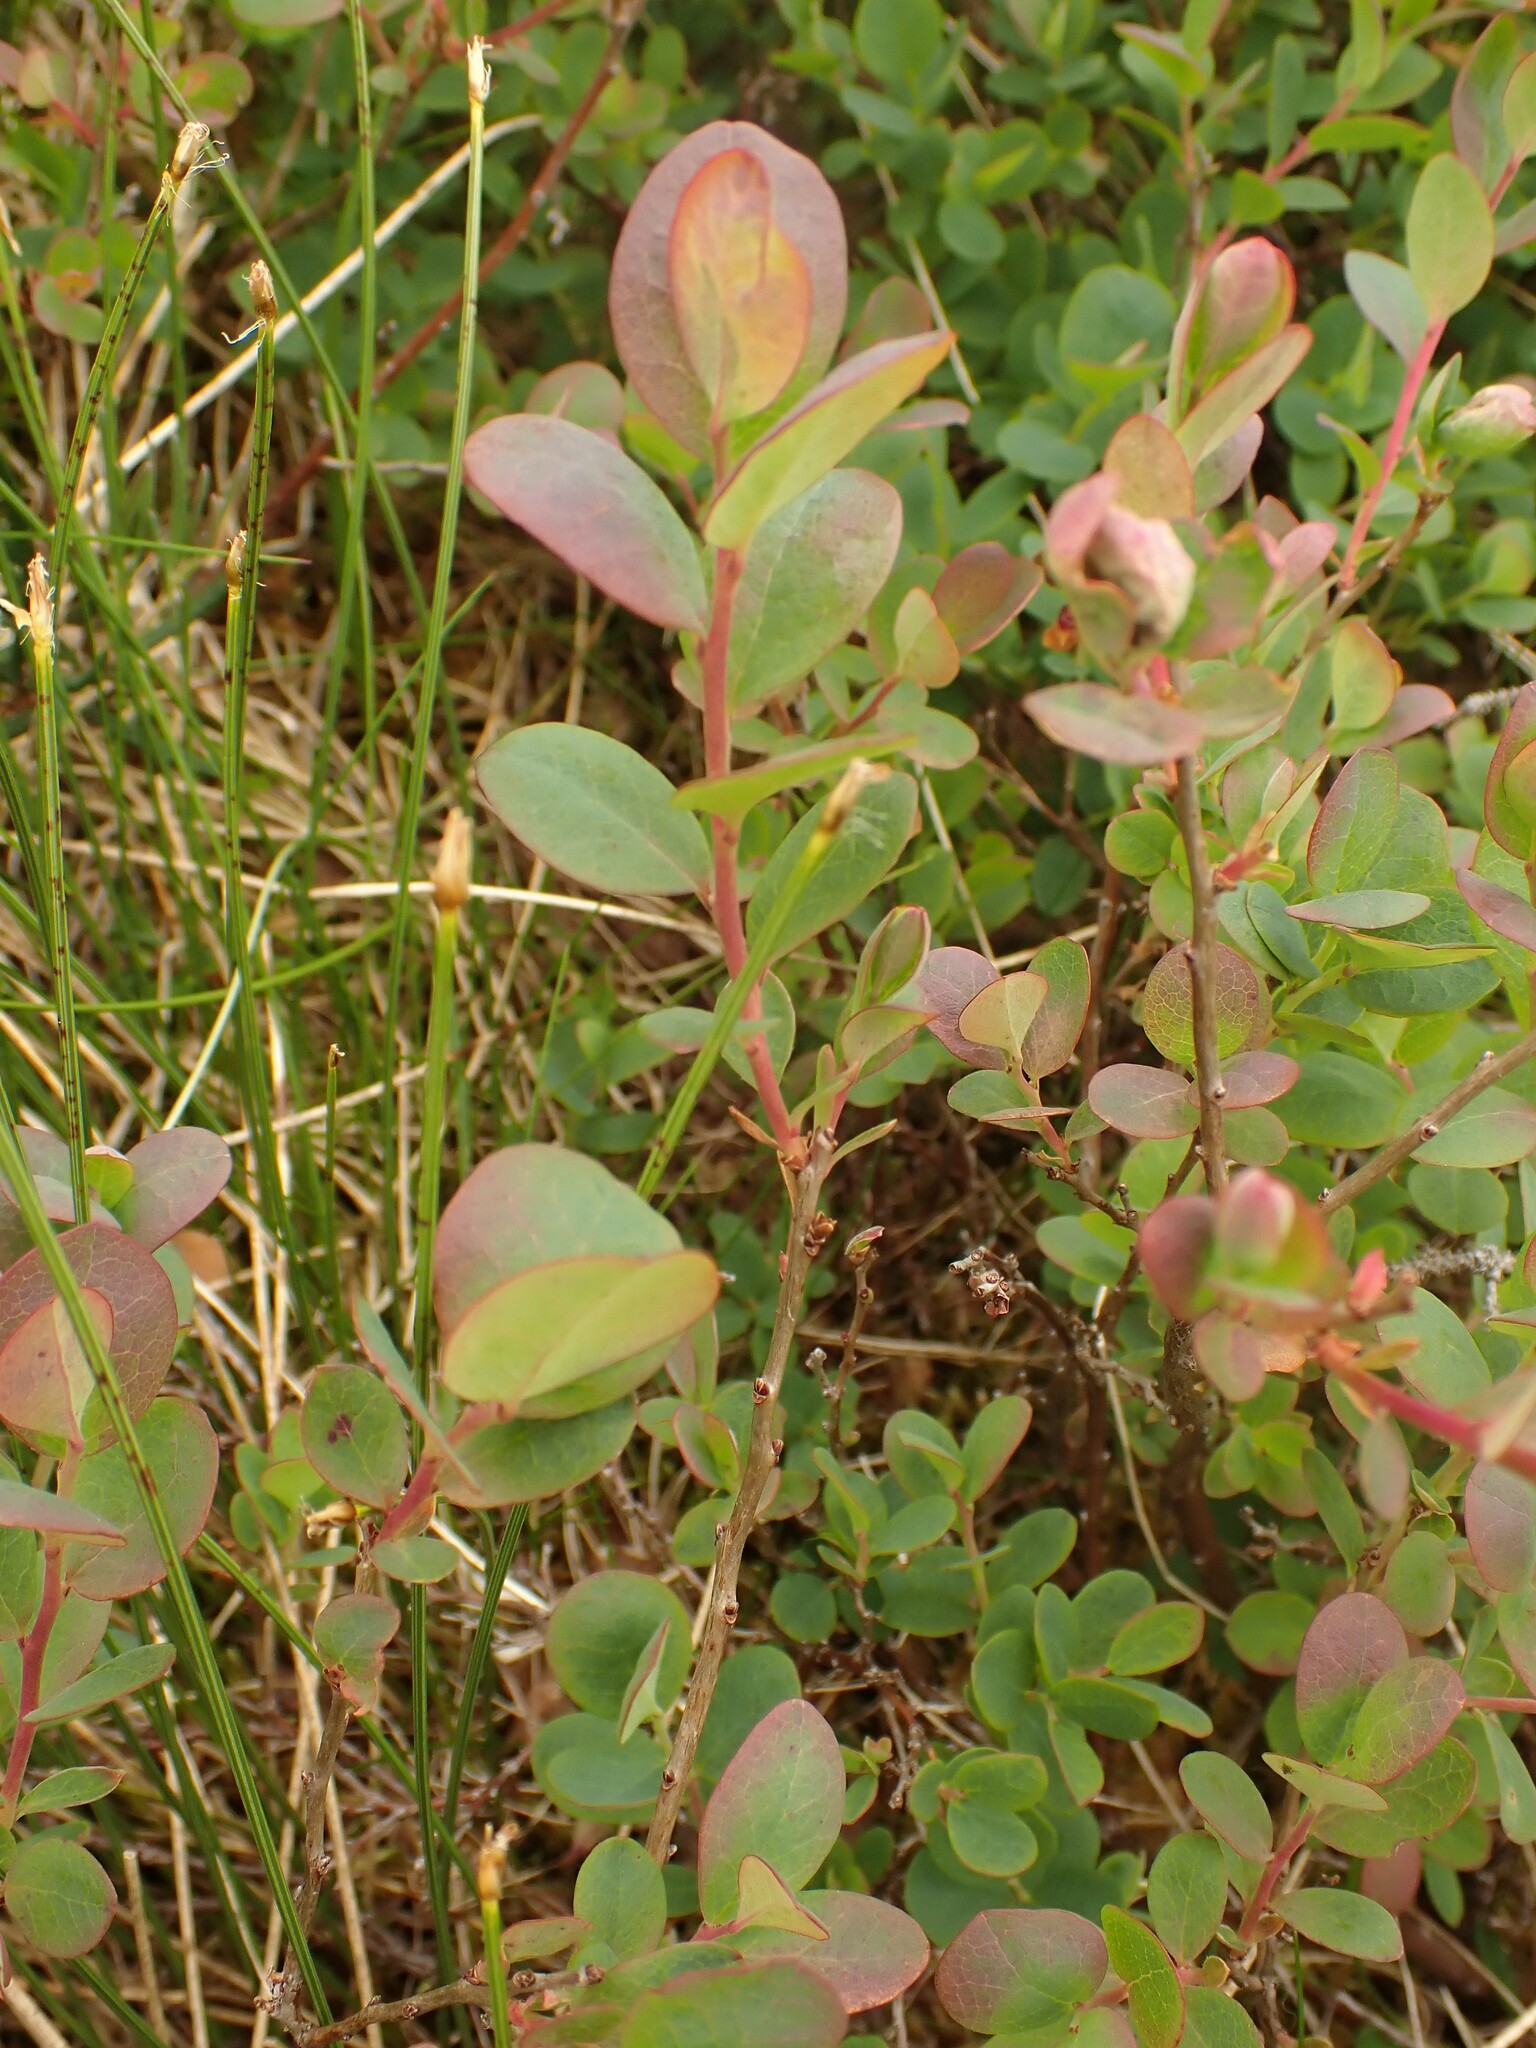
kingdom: Plantae
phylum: Tracheophyta
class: Magnoliopsida
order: Ericales
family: Ericaceae
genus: Vaccinium
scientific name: Vaccinium uliginosum
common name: Bog bilberry
